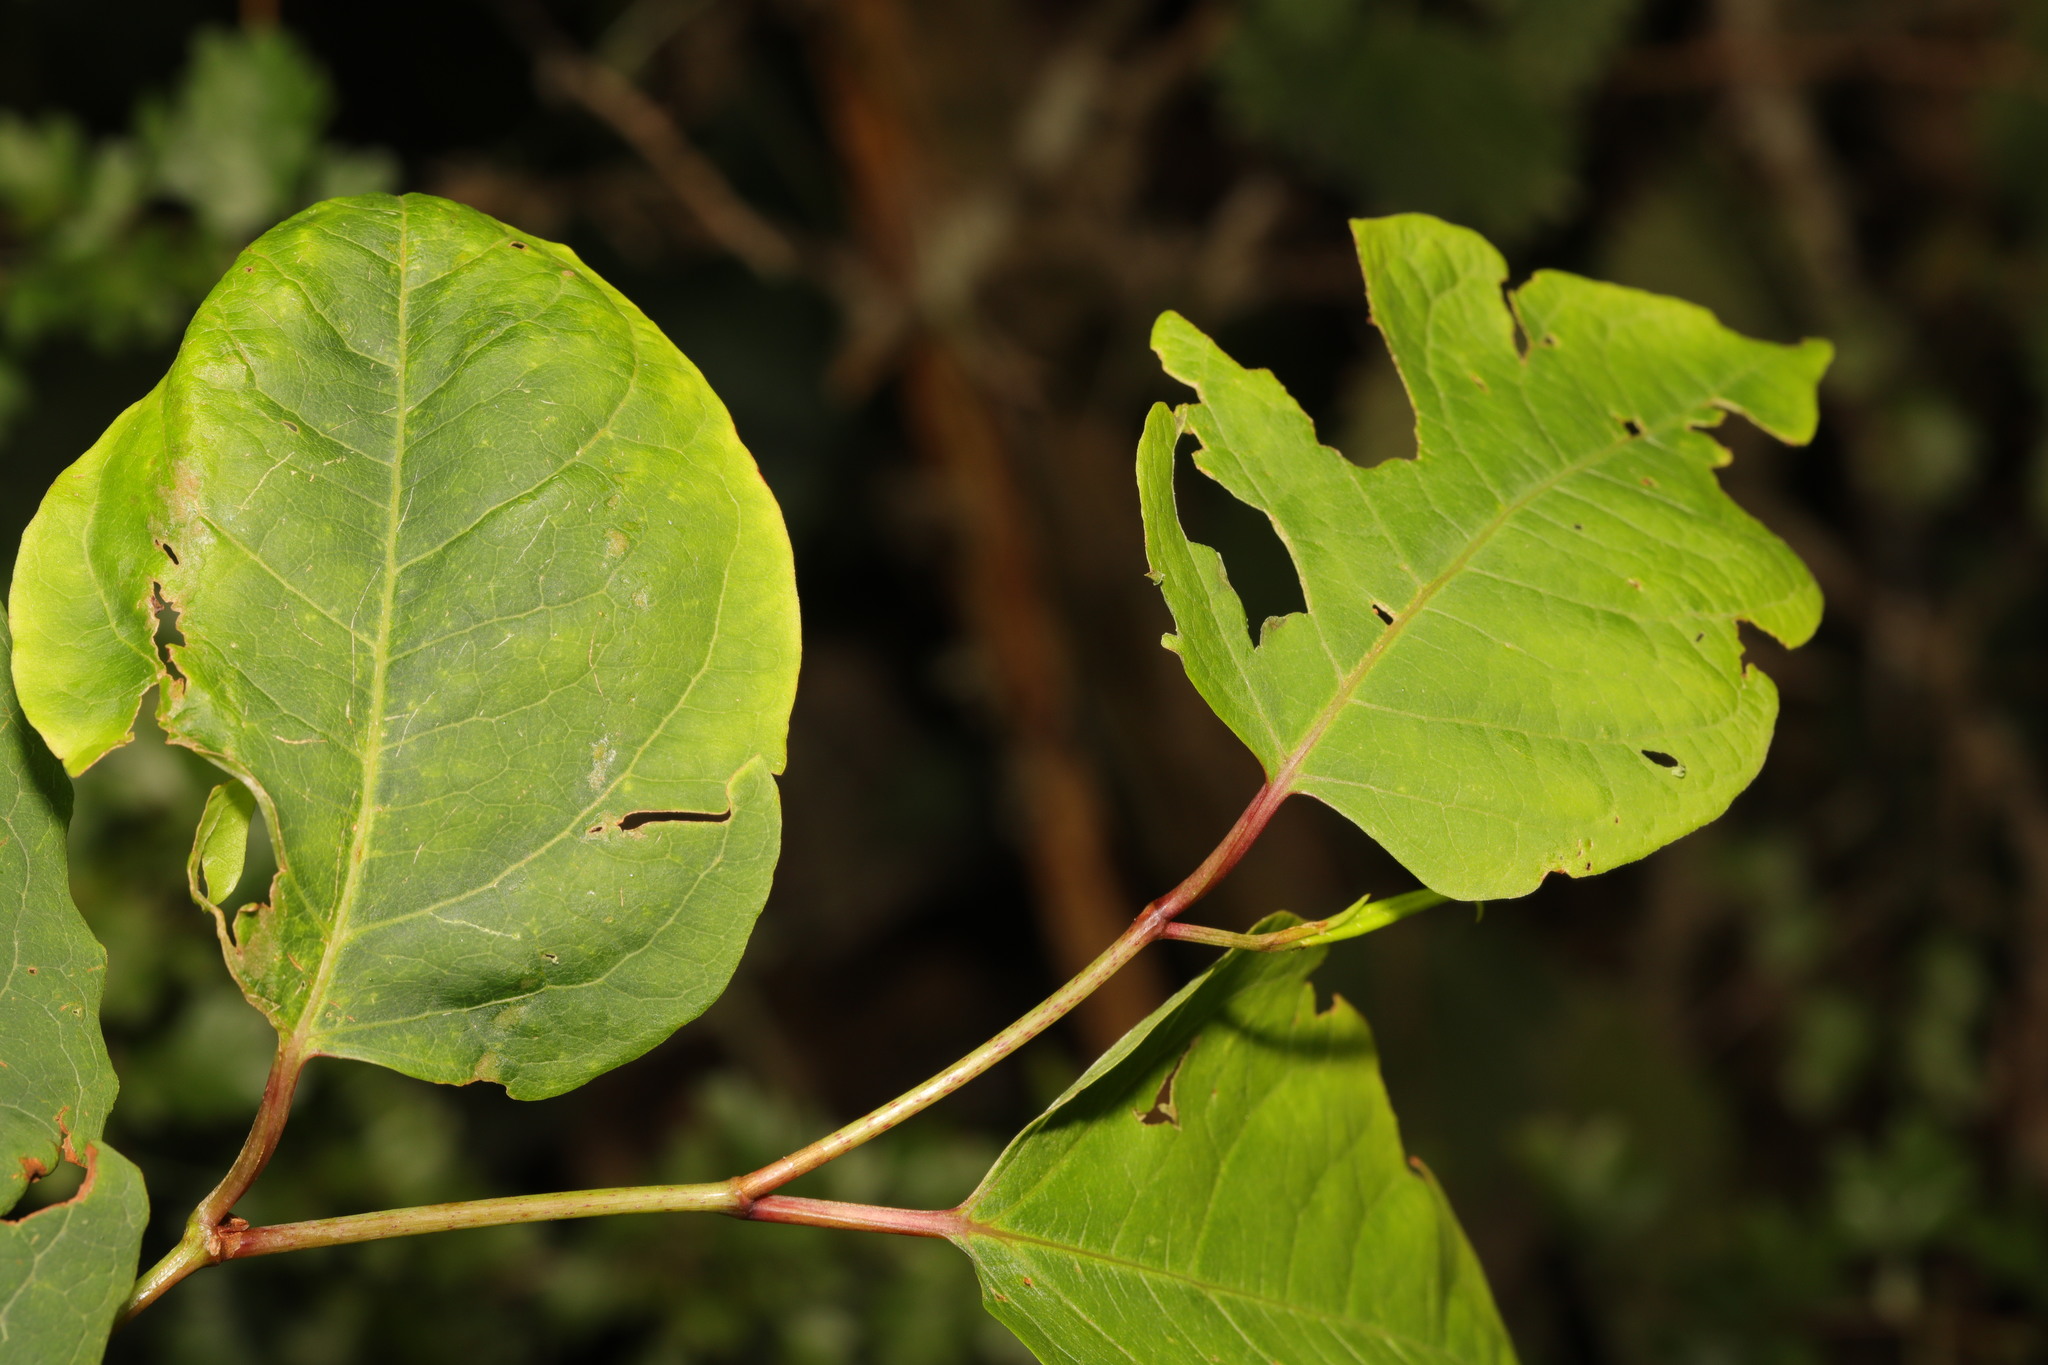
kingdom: Plantae
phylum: Tracheophyta
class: Magnoliopsida
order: Caryophyllales
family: Polygonaceae
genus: Reynoutria
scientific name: Reynoutria bohemica
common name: Bohemian knotweed
